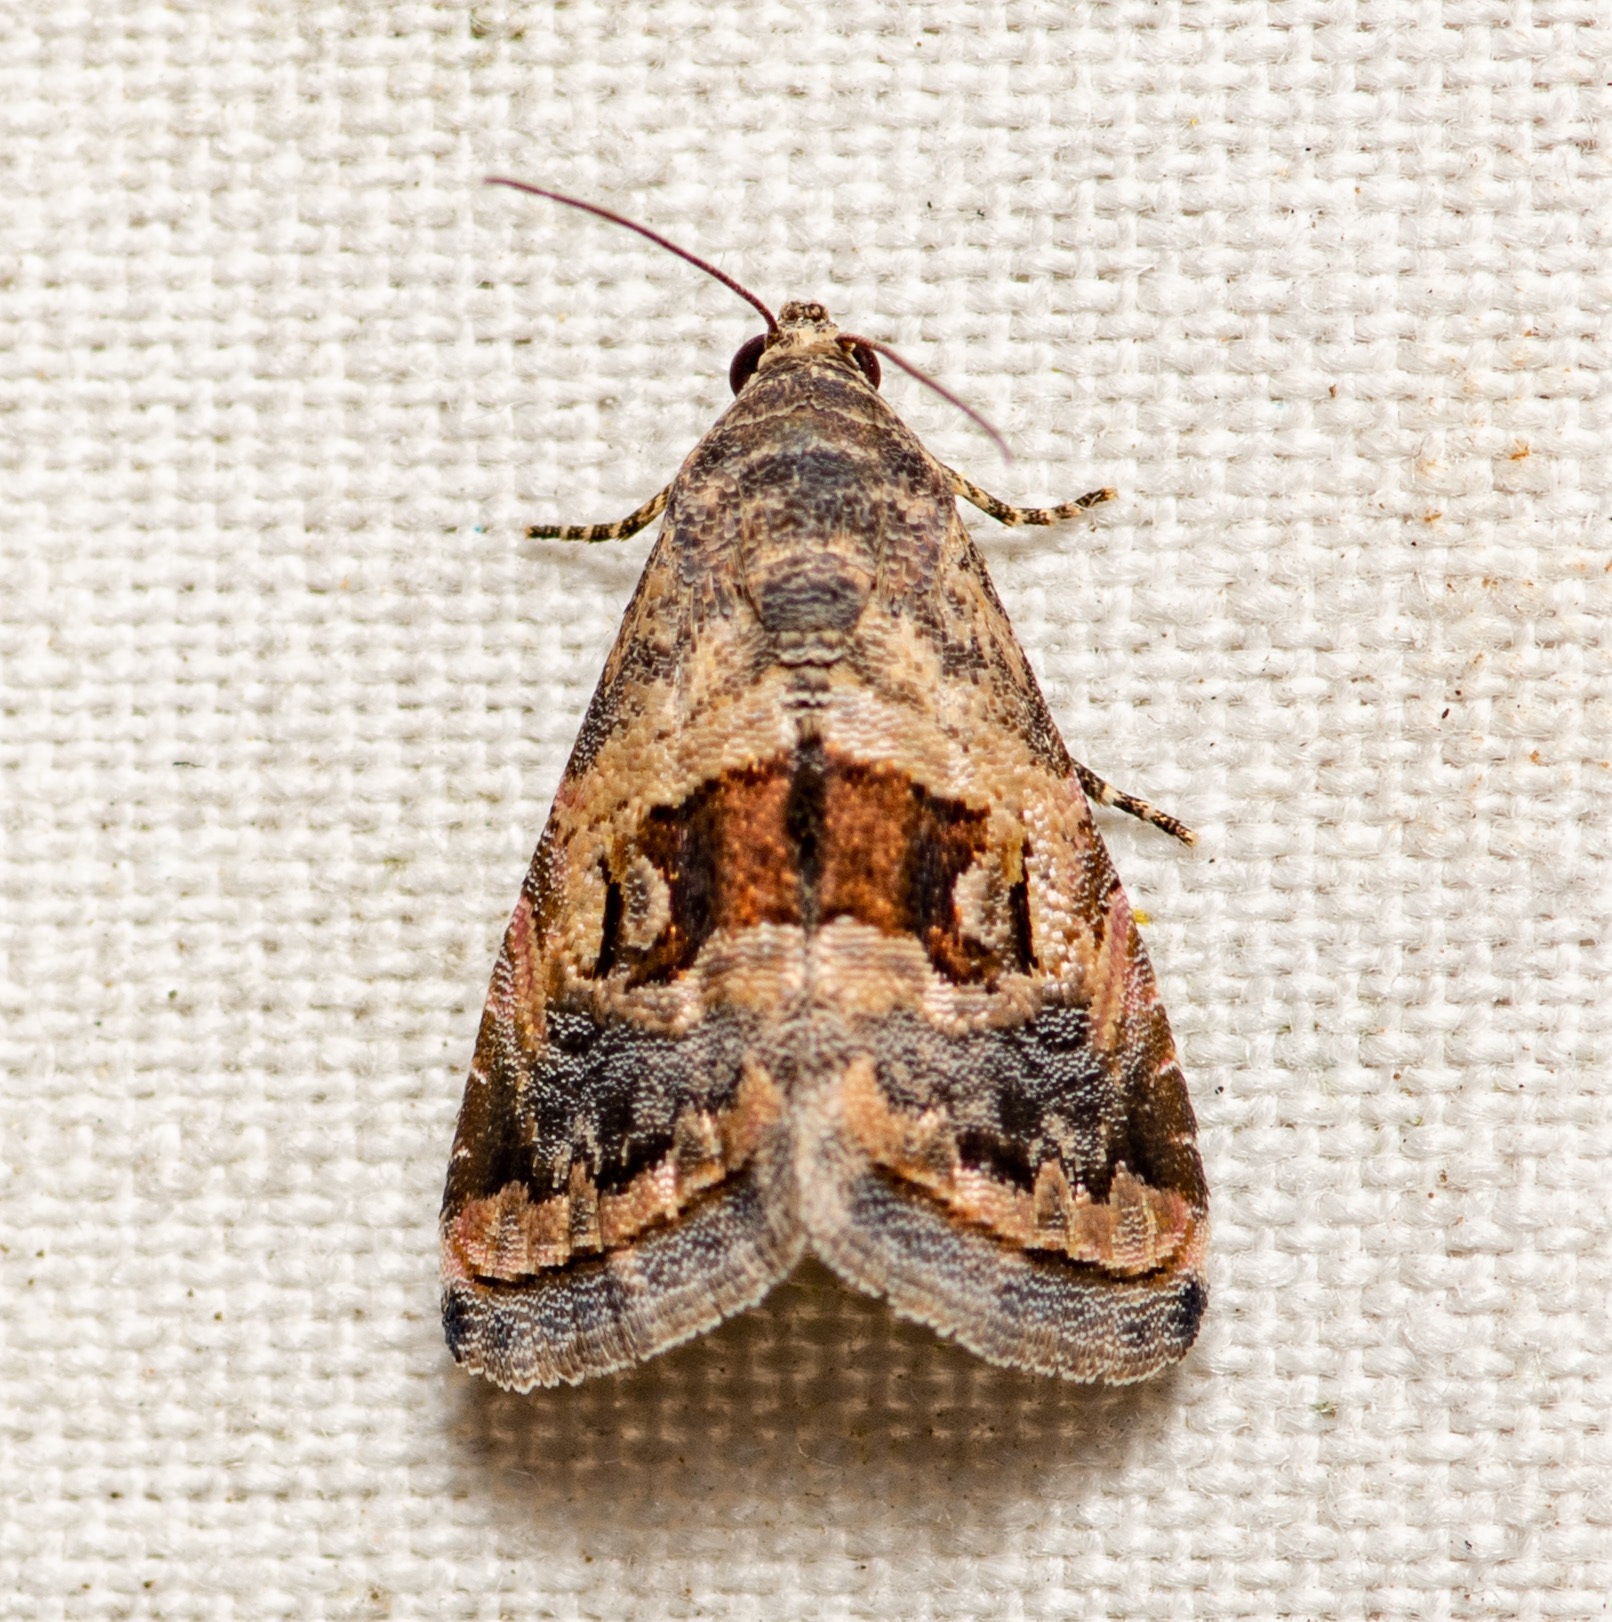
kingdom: Animalia
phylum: Arthropoda
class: Insecta
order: Lepidoptera
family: Noctuidae
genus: Tripudia
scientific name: Tripudia quadrifera
